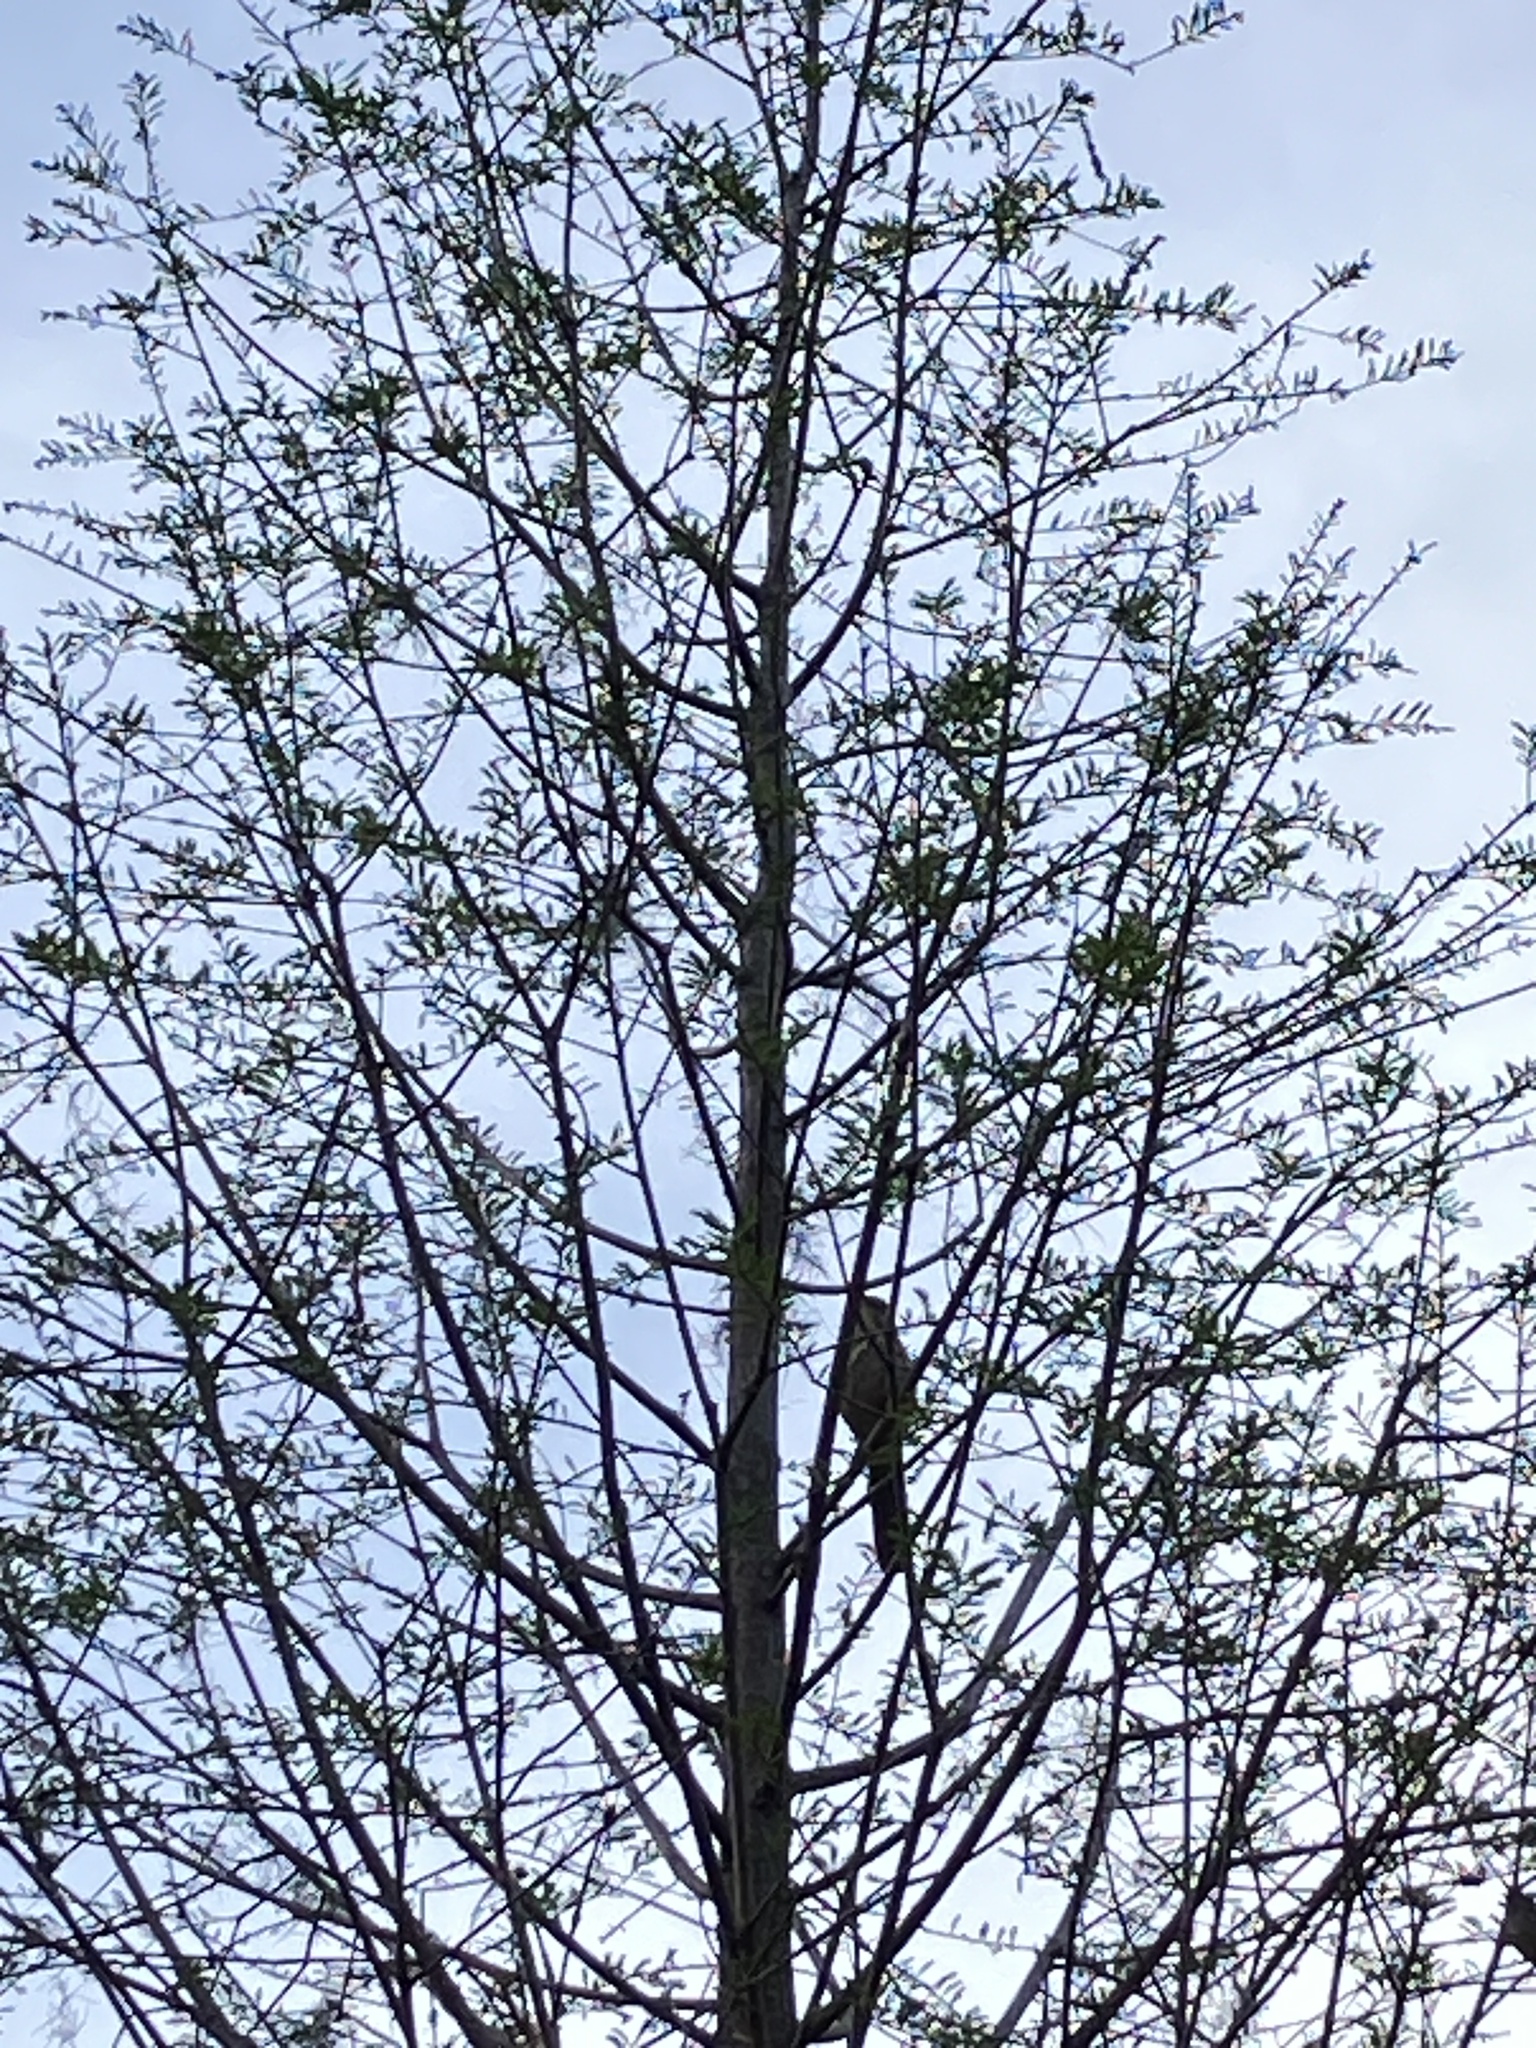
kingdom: Animalia
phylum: Chordata
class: Aves
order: Passeriformes
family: Mimidae
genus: Toxostoma
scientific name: Toxostoma rufum
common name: Brown thrasher
